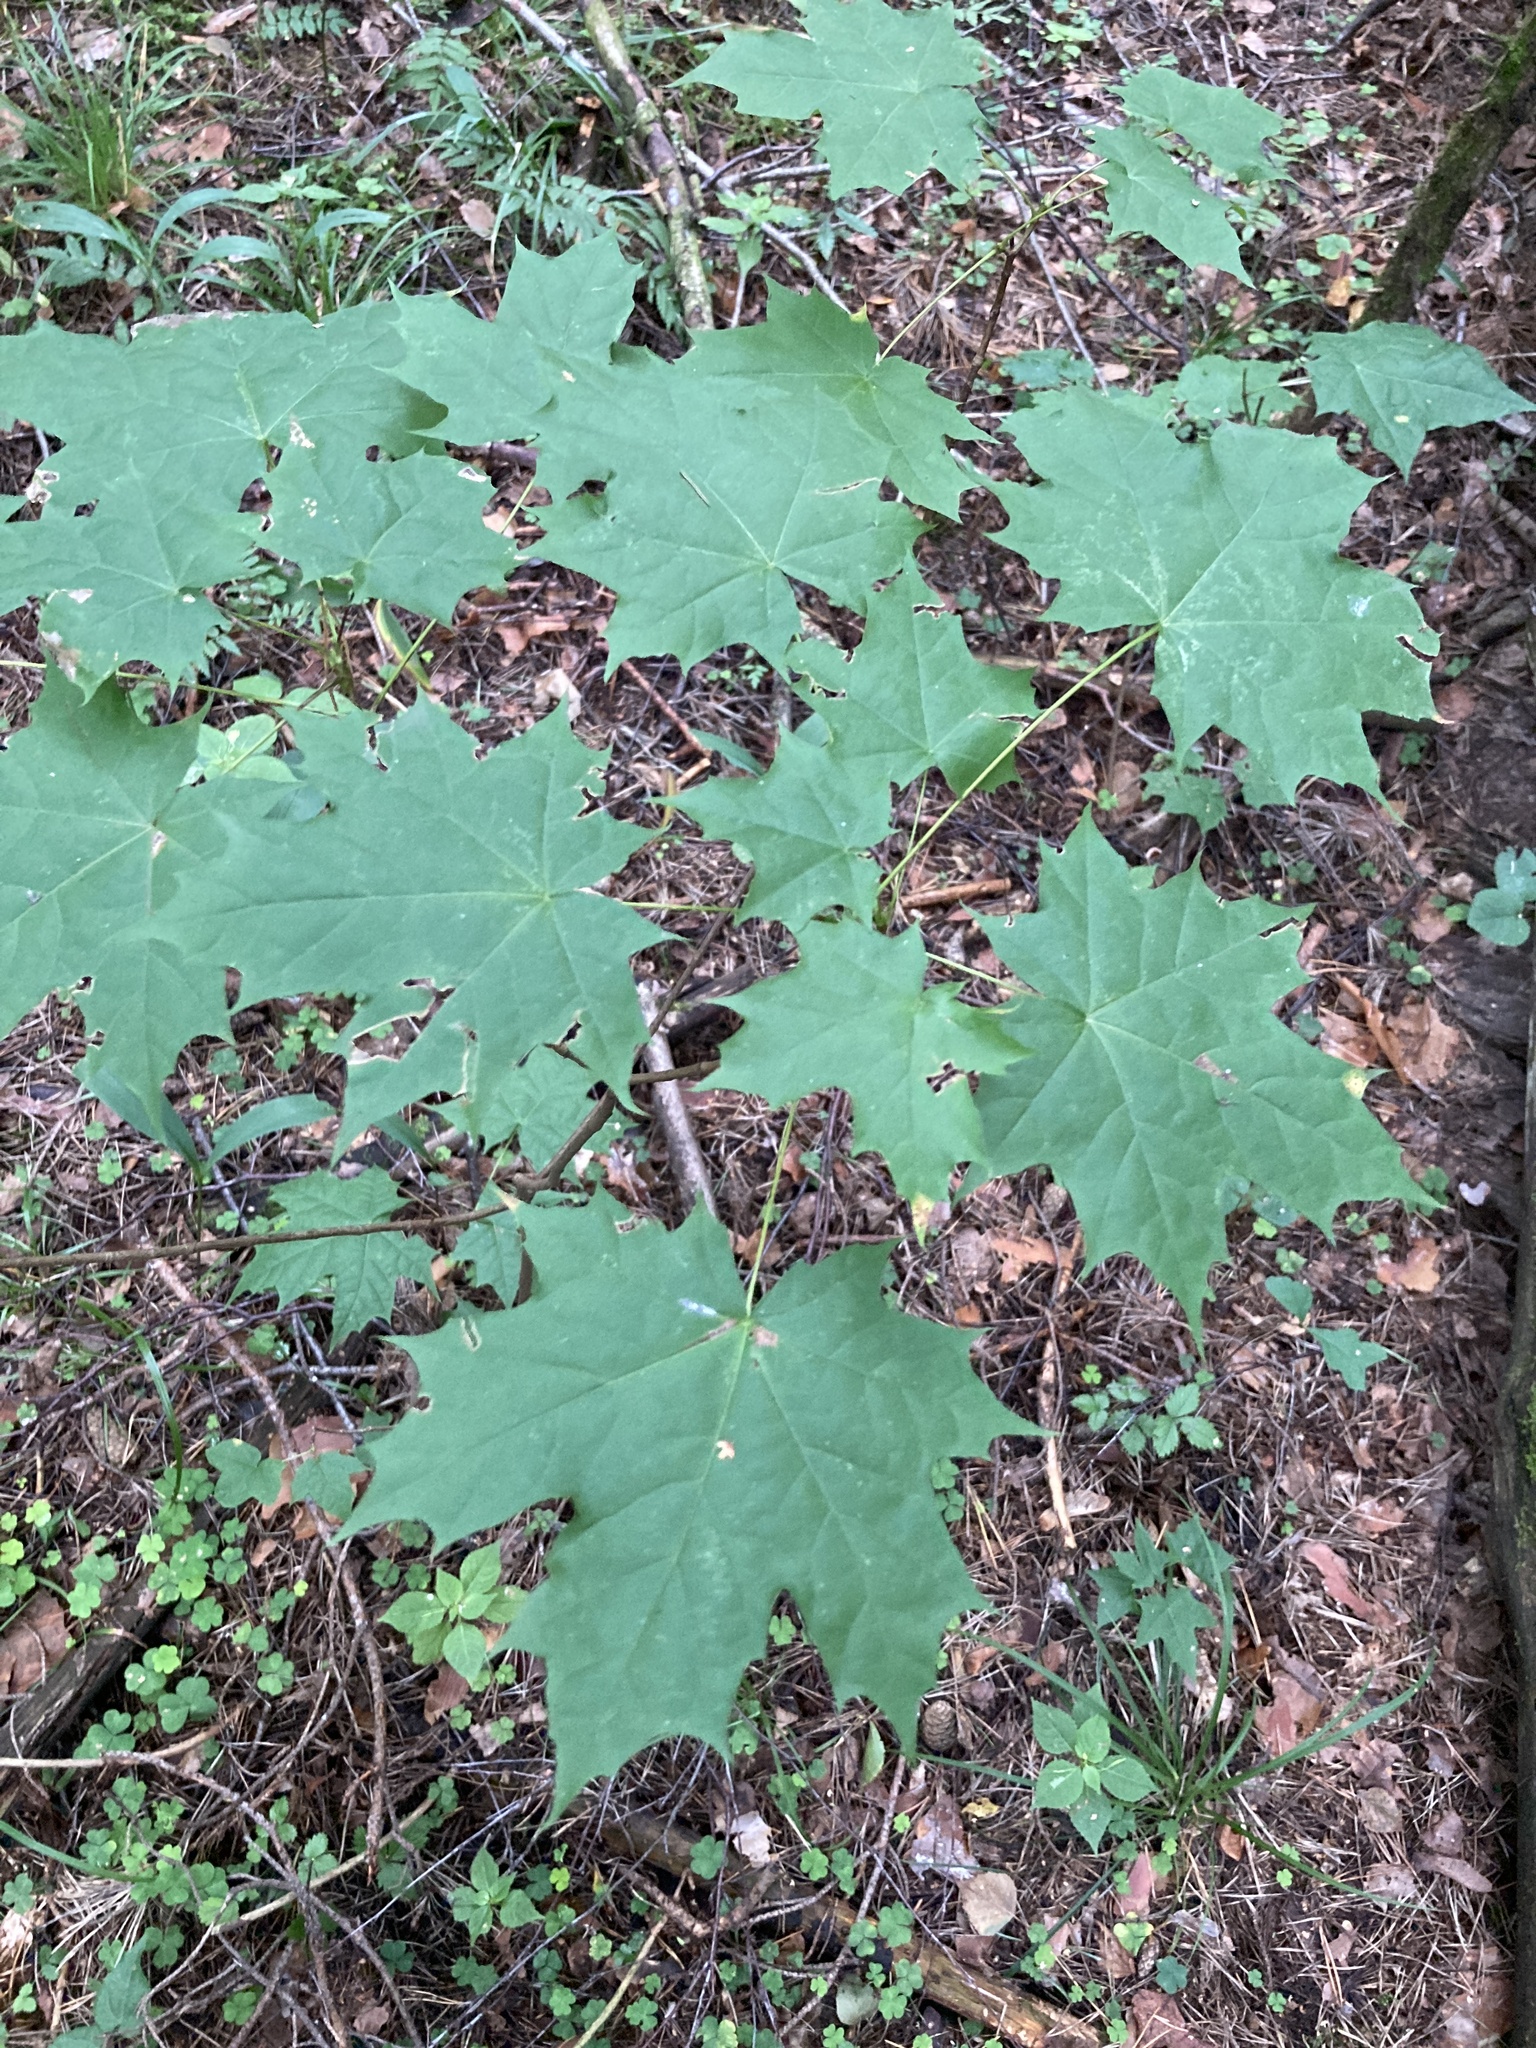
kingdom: Plantae
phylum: Tracheophyta
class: Magnoliopsida
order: Sapindales
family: Sapindaceae
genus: Acer
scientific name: Acer platanoides
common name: Norway maple
